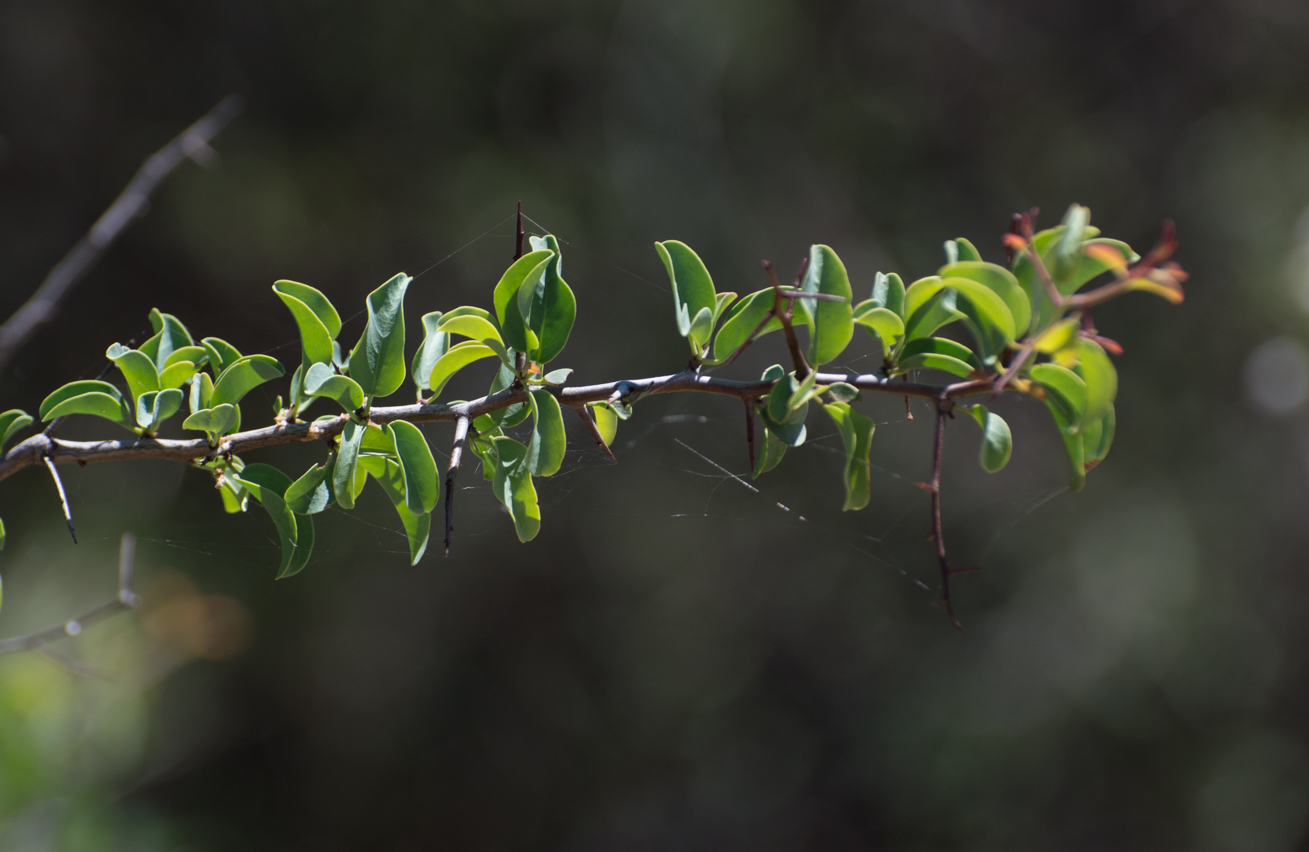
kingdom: Plantae
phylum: Tracheophyta
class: Magnoliopsida
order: Santalales
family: Ximeniaceae
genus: Ximenia
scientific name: Ximenia americana
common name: Tallowwood
